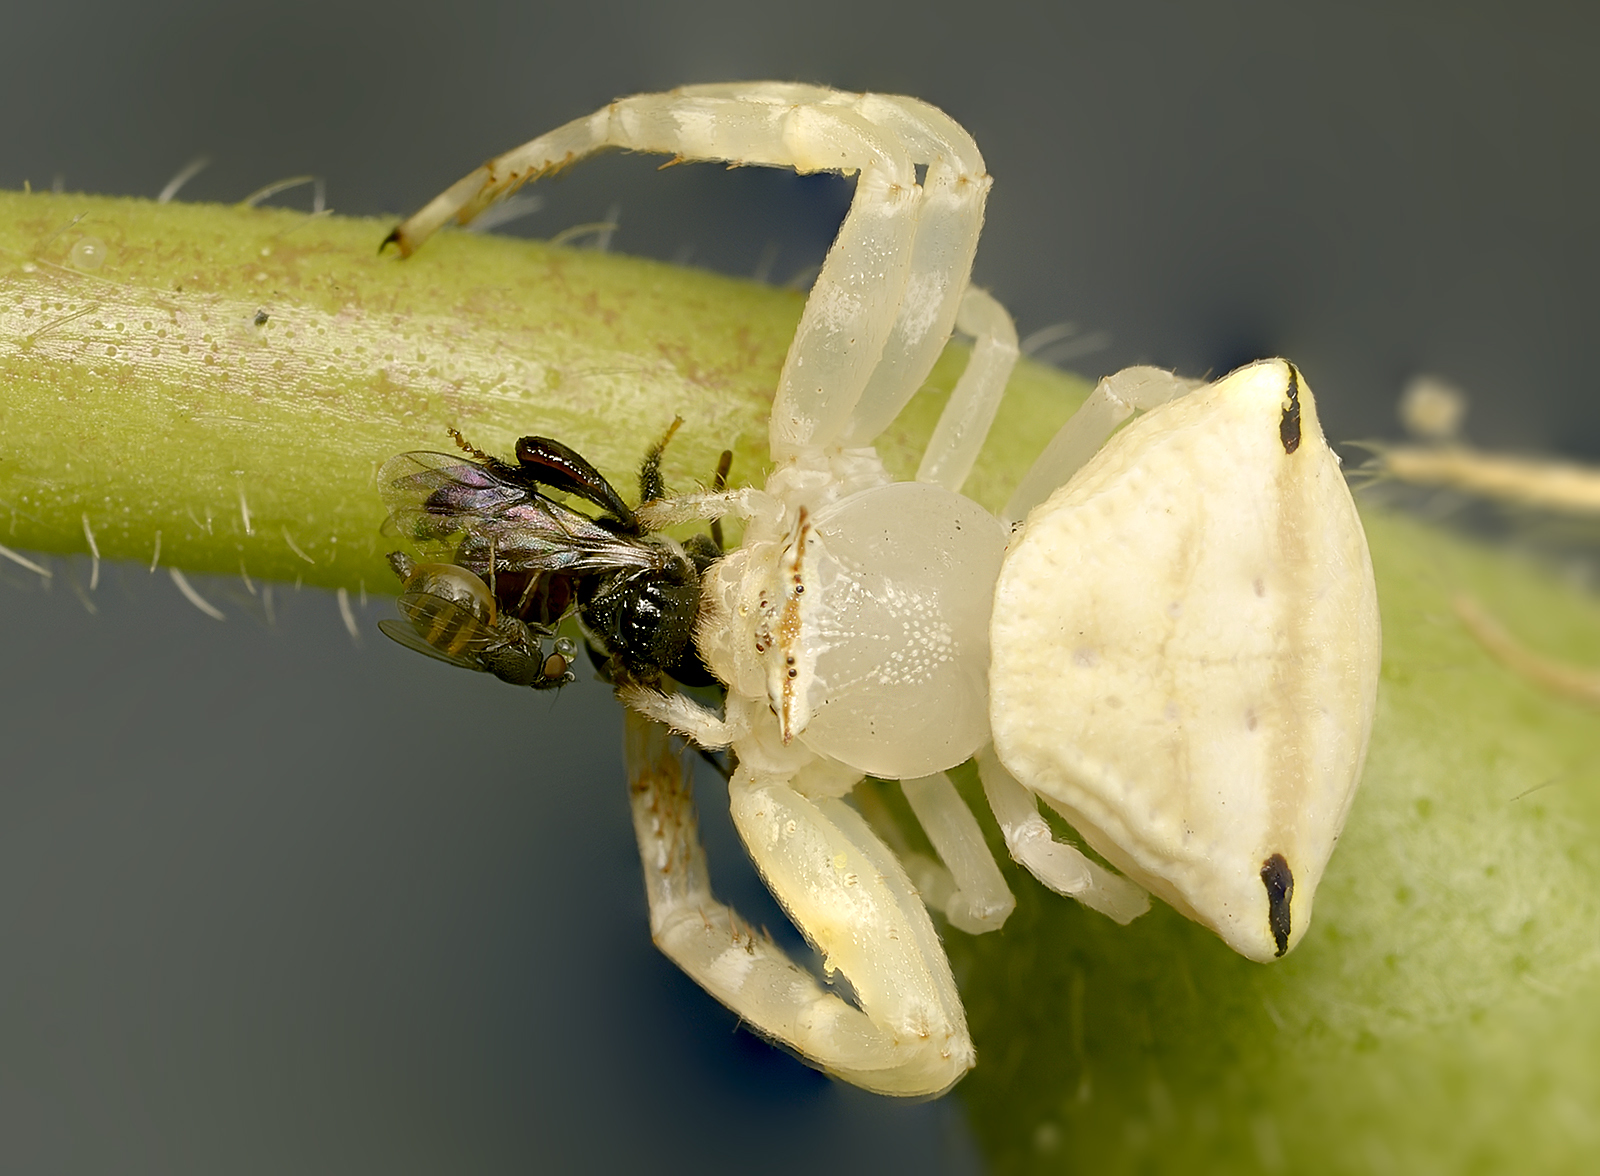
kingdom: Animalia
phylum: Arthropoda
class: Arachnida
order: Araneae
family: Thomisidae
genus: Thomisus
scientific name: Thomisus spectabilis
